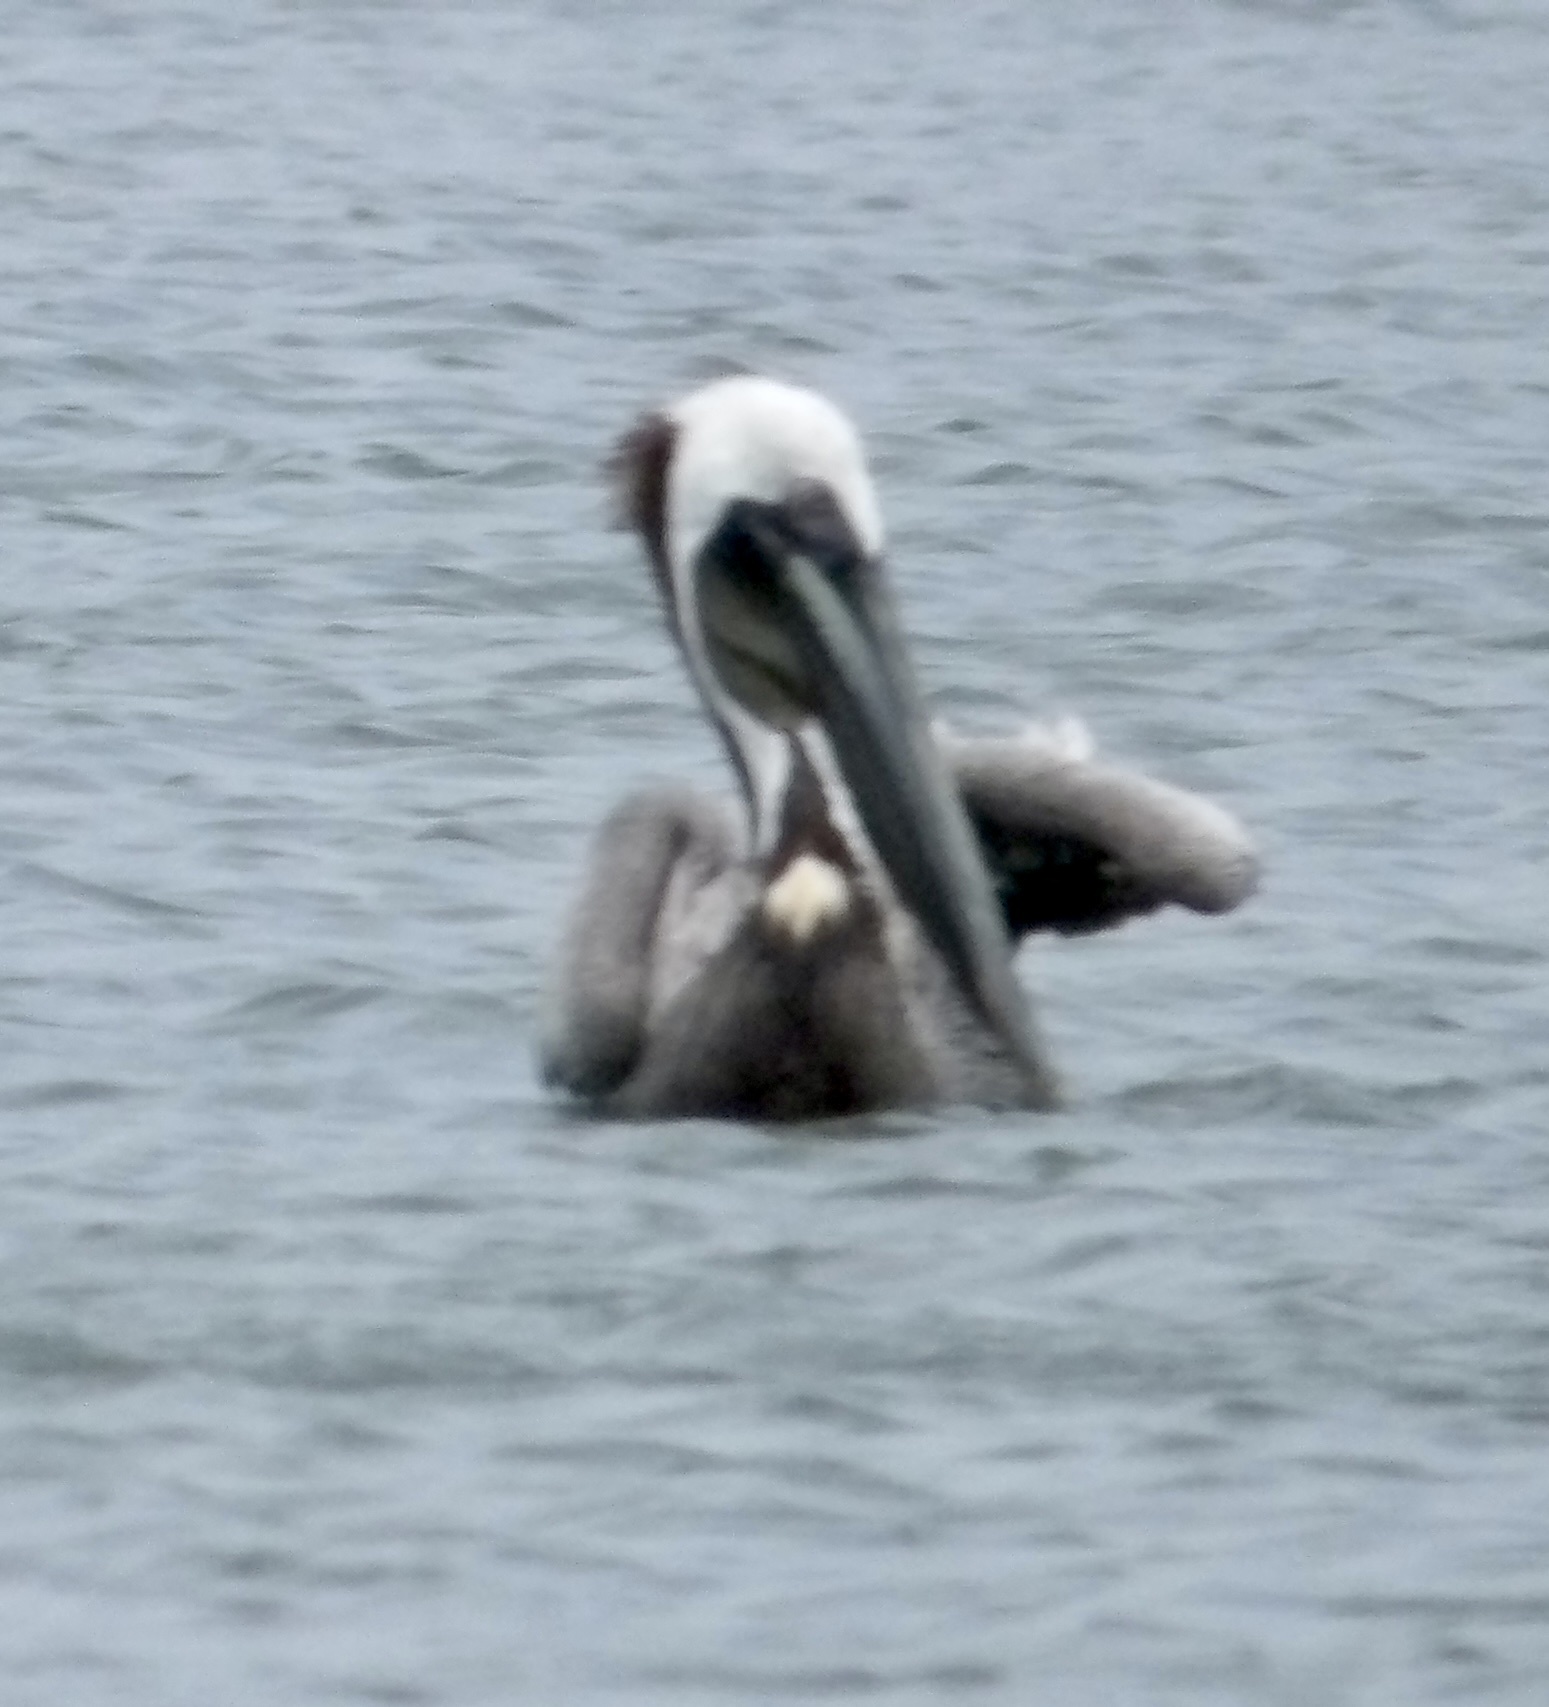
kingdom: Animalia
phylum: Chordata
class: Aves
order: Pelecaniformes
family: Pelecanidae
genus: Pelecanus
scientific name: Pelecanus occidentalis
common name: Brown pelican
